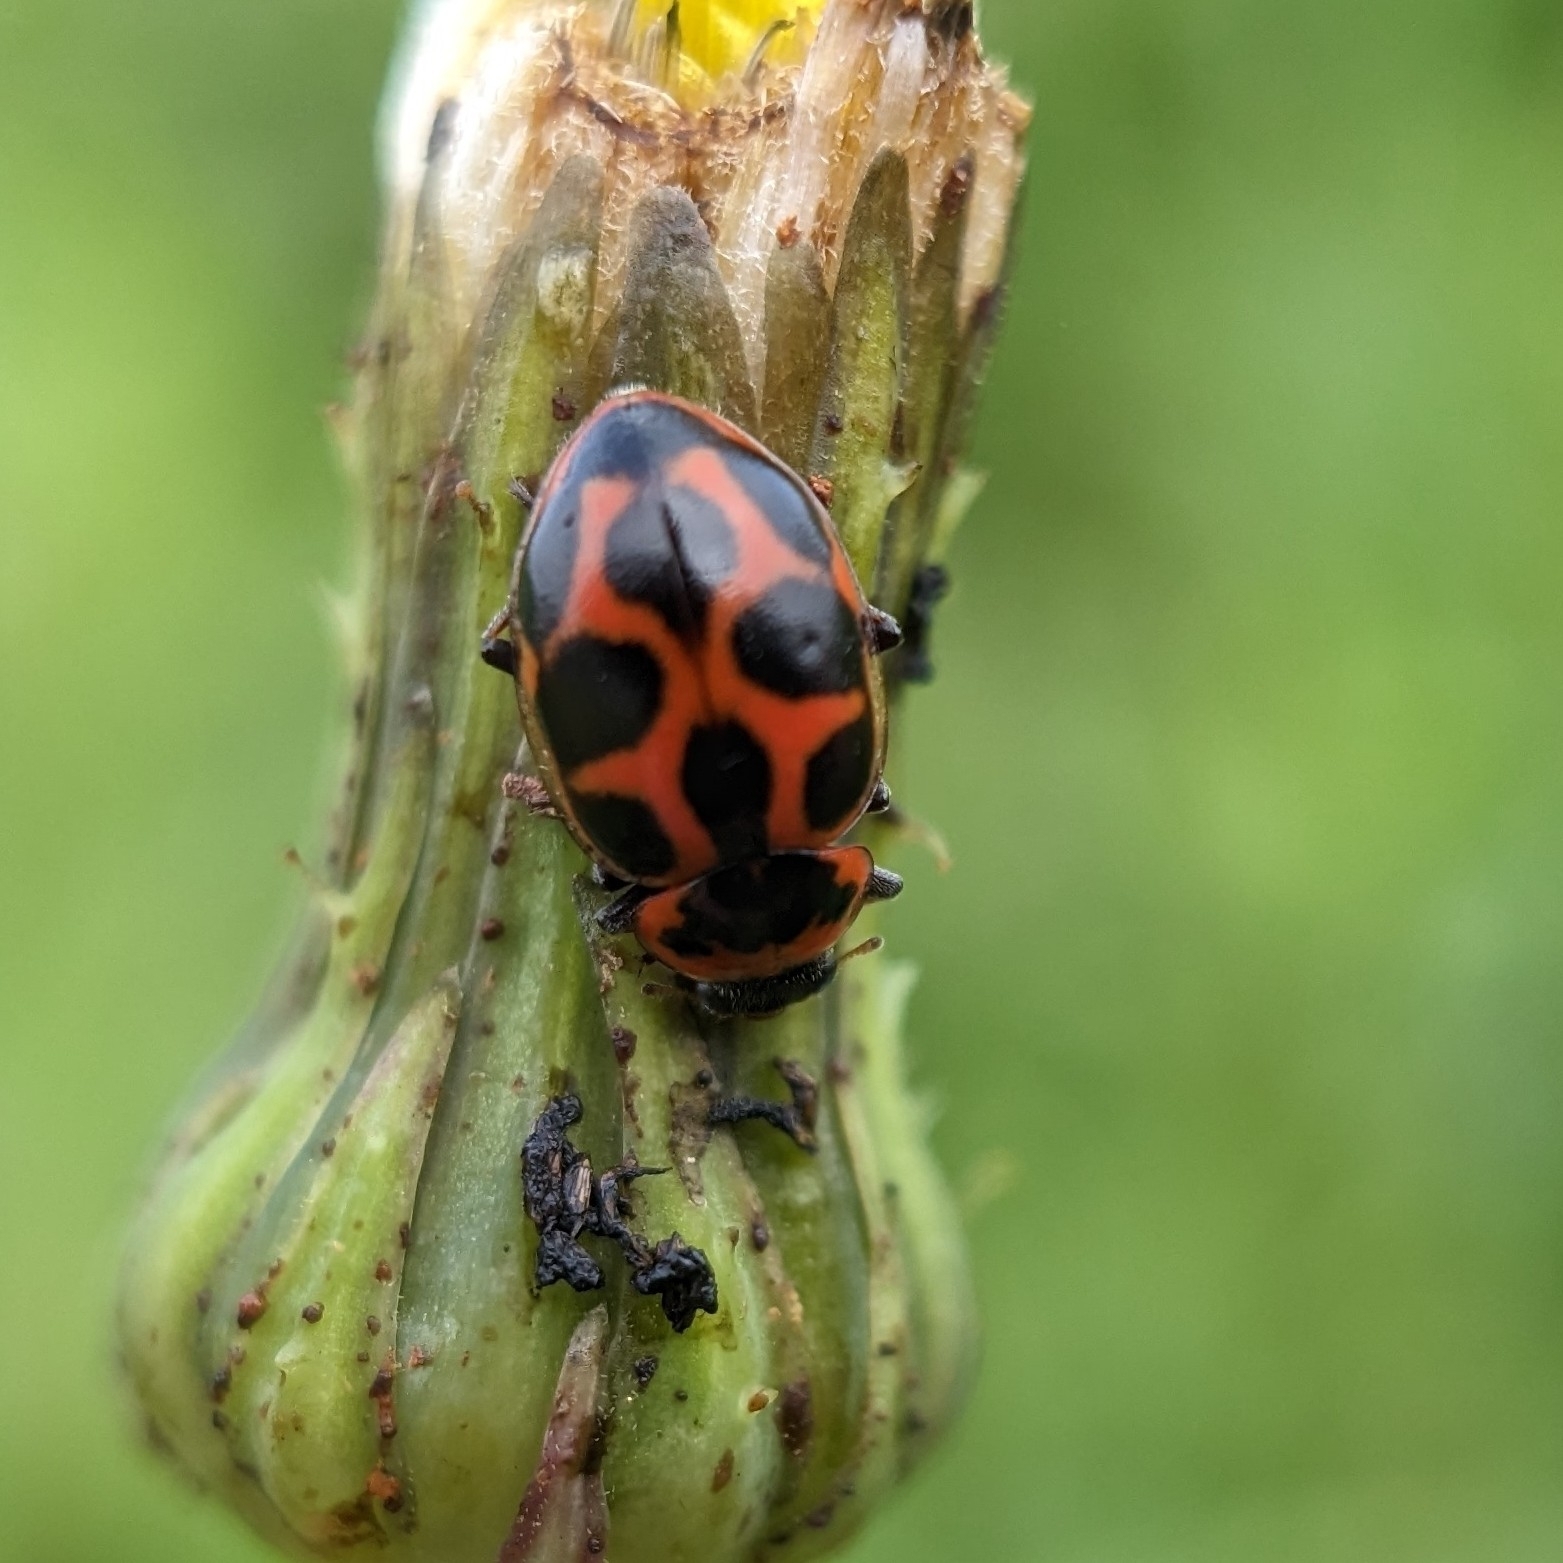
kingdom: Animalia
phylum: Arthropoda
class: Insecta
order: Coleoptera
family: Coccinellidae
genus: Naemia
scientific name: Naemia seriata
